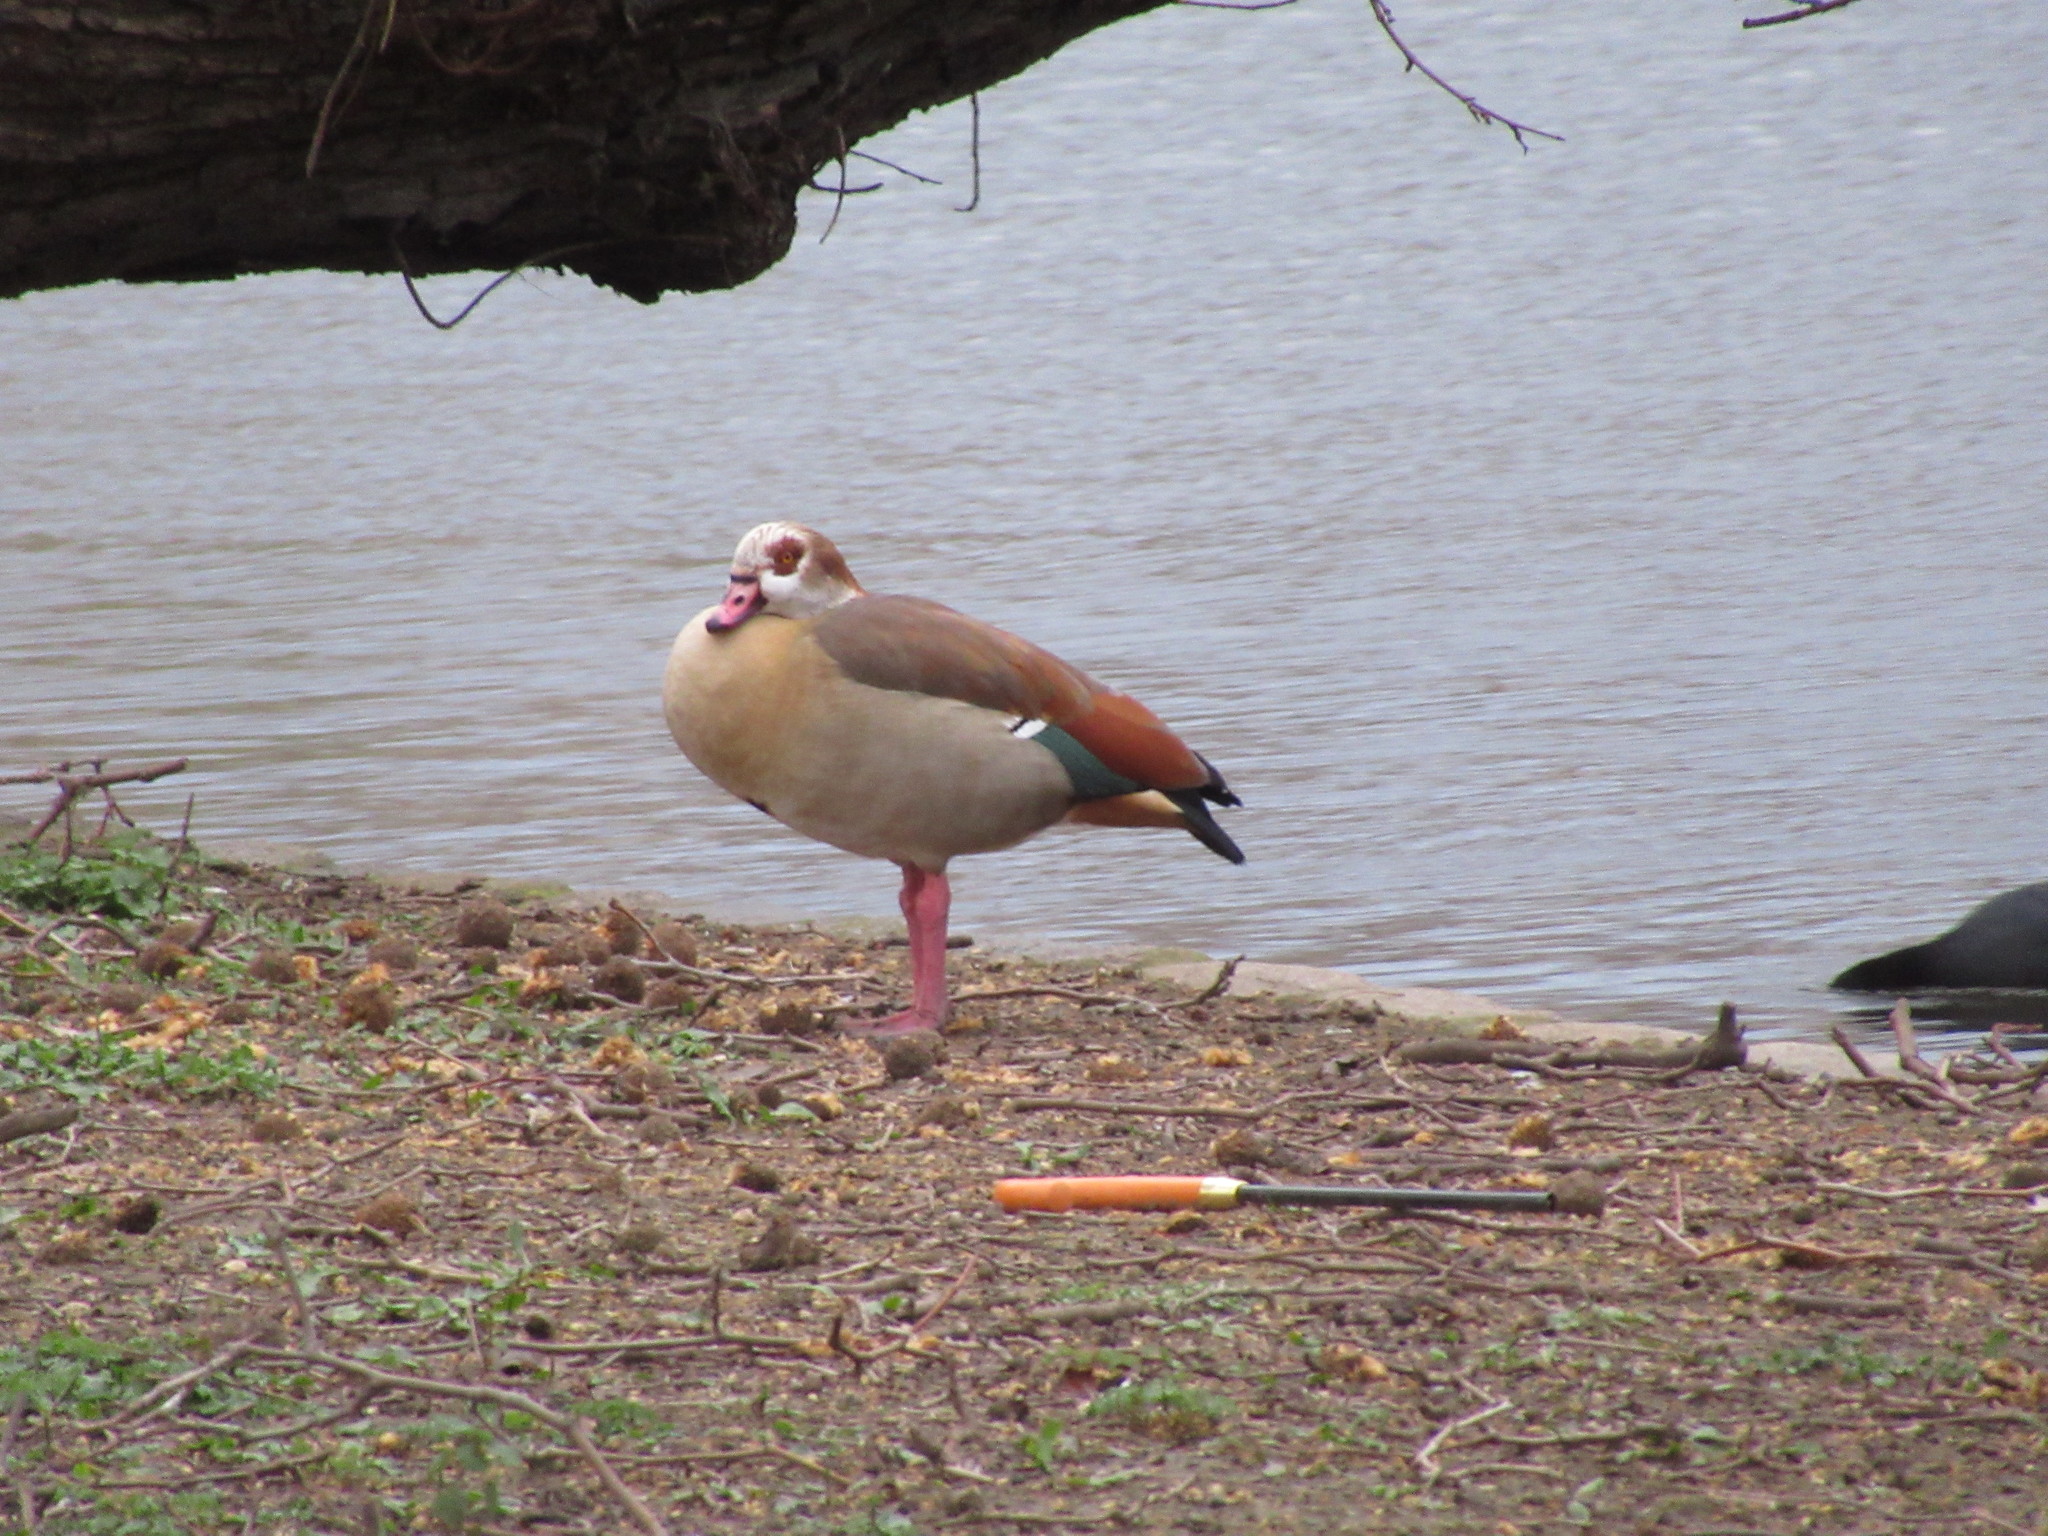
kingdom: Animalia
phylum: Chordata
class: Aves
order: Anseriformes
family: Anatidae
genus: Alopochen
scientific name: Alopochen aegyptiaca
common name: Egyptian goose
